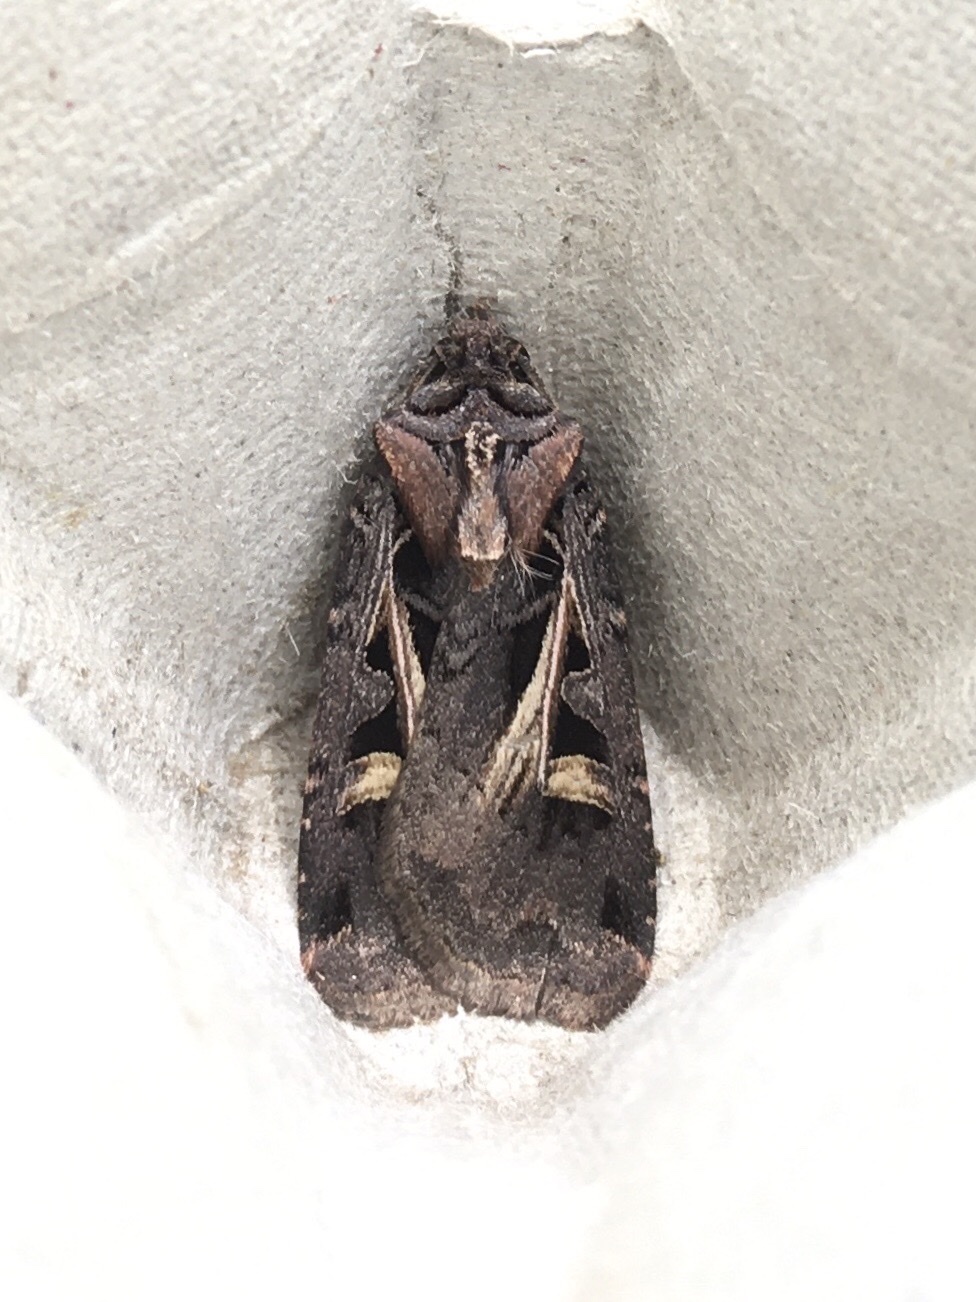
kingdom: Animalia
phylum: Arthropoda
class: Insecta
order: Lepidoptera
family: Noctuidae
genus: Feltia
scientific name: Feltia herilis
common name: Master's dart
